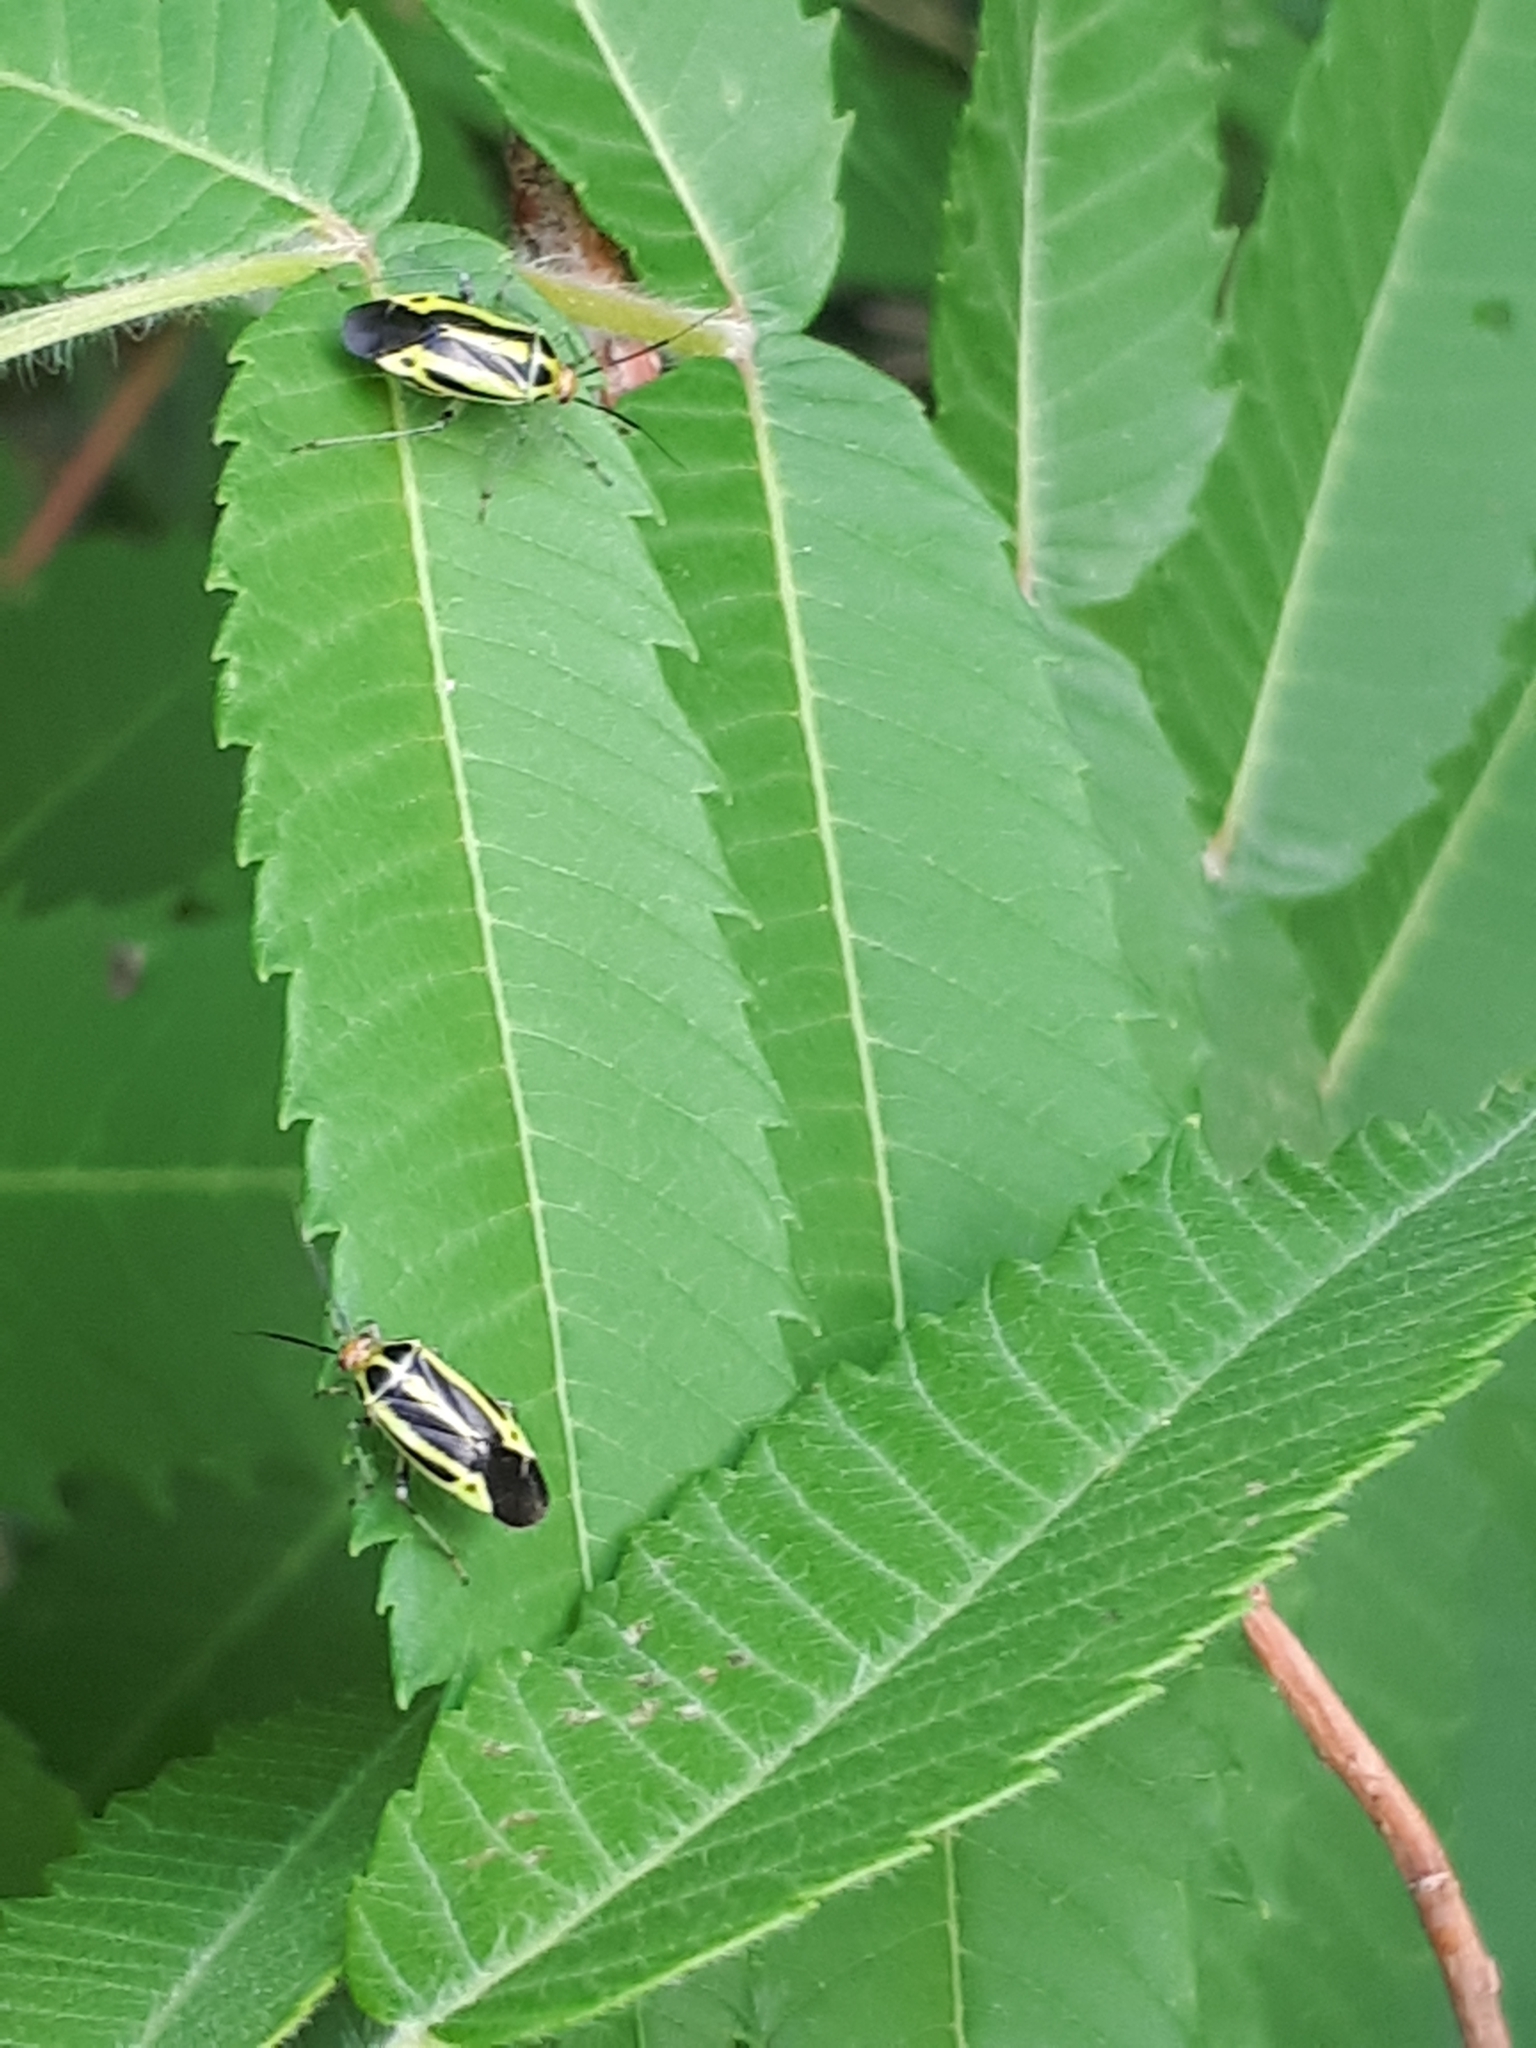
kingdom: Animalia
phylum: Arthropoda
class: Insecta
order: Hemiptera
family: Miridae
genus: Poecilocapsus
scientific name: Poecilocapsus lineatus
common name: Four-lined plant bug
